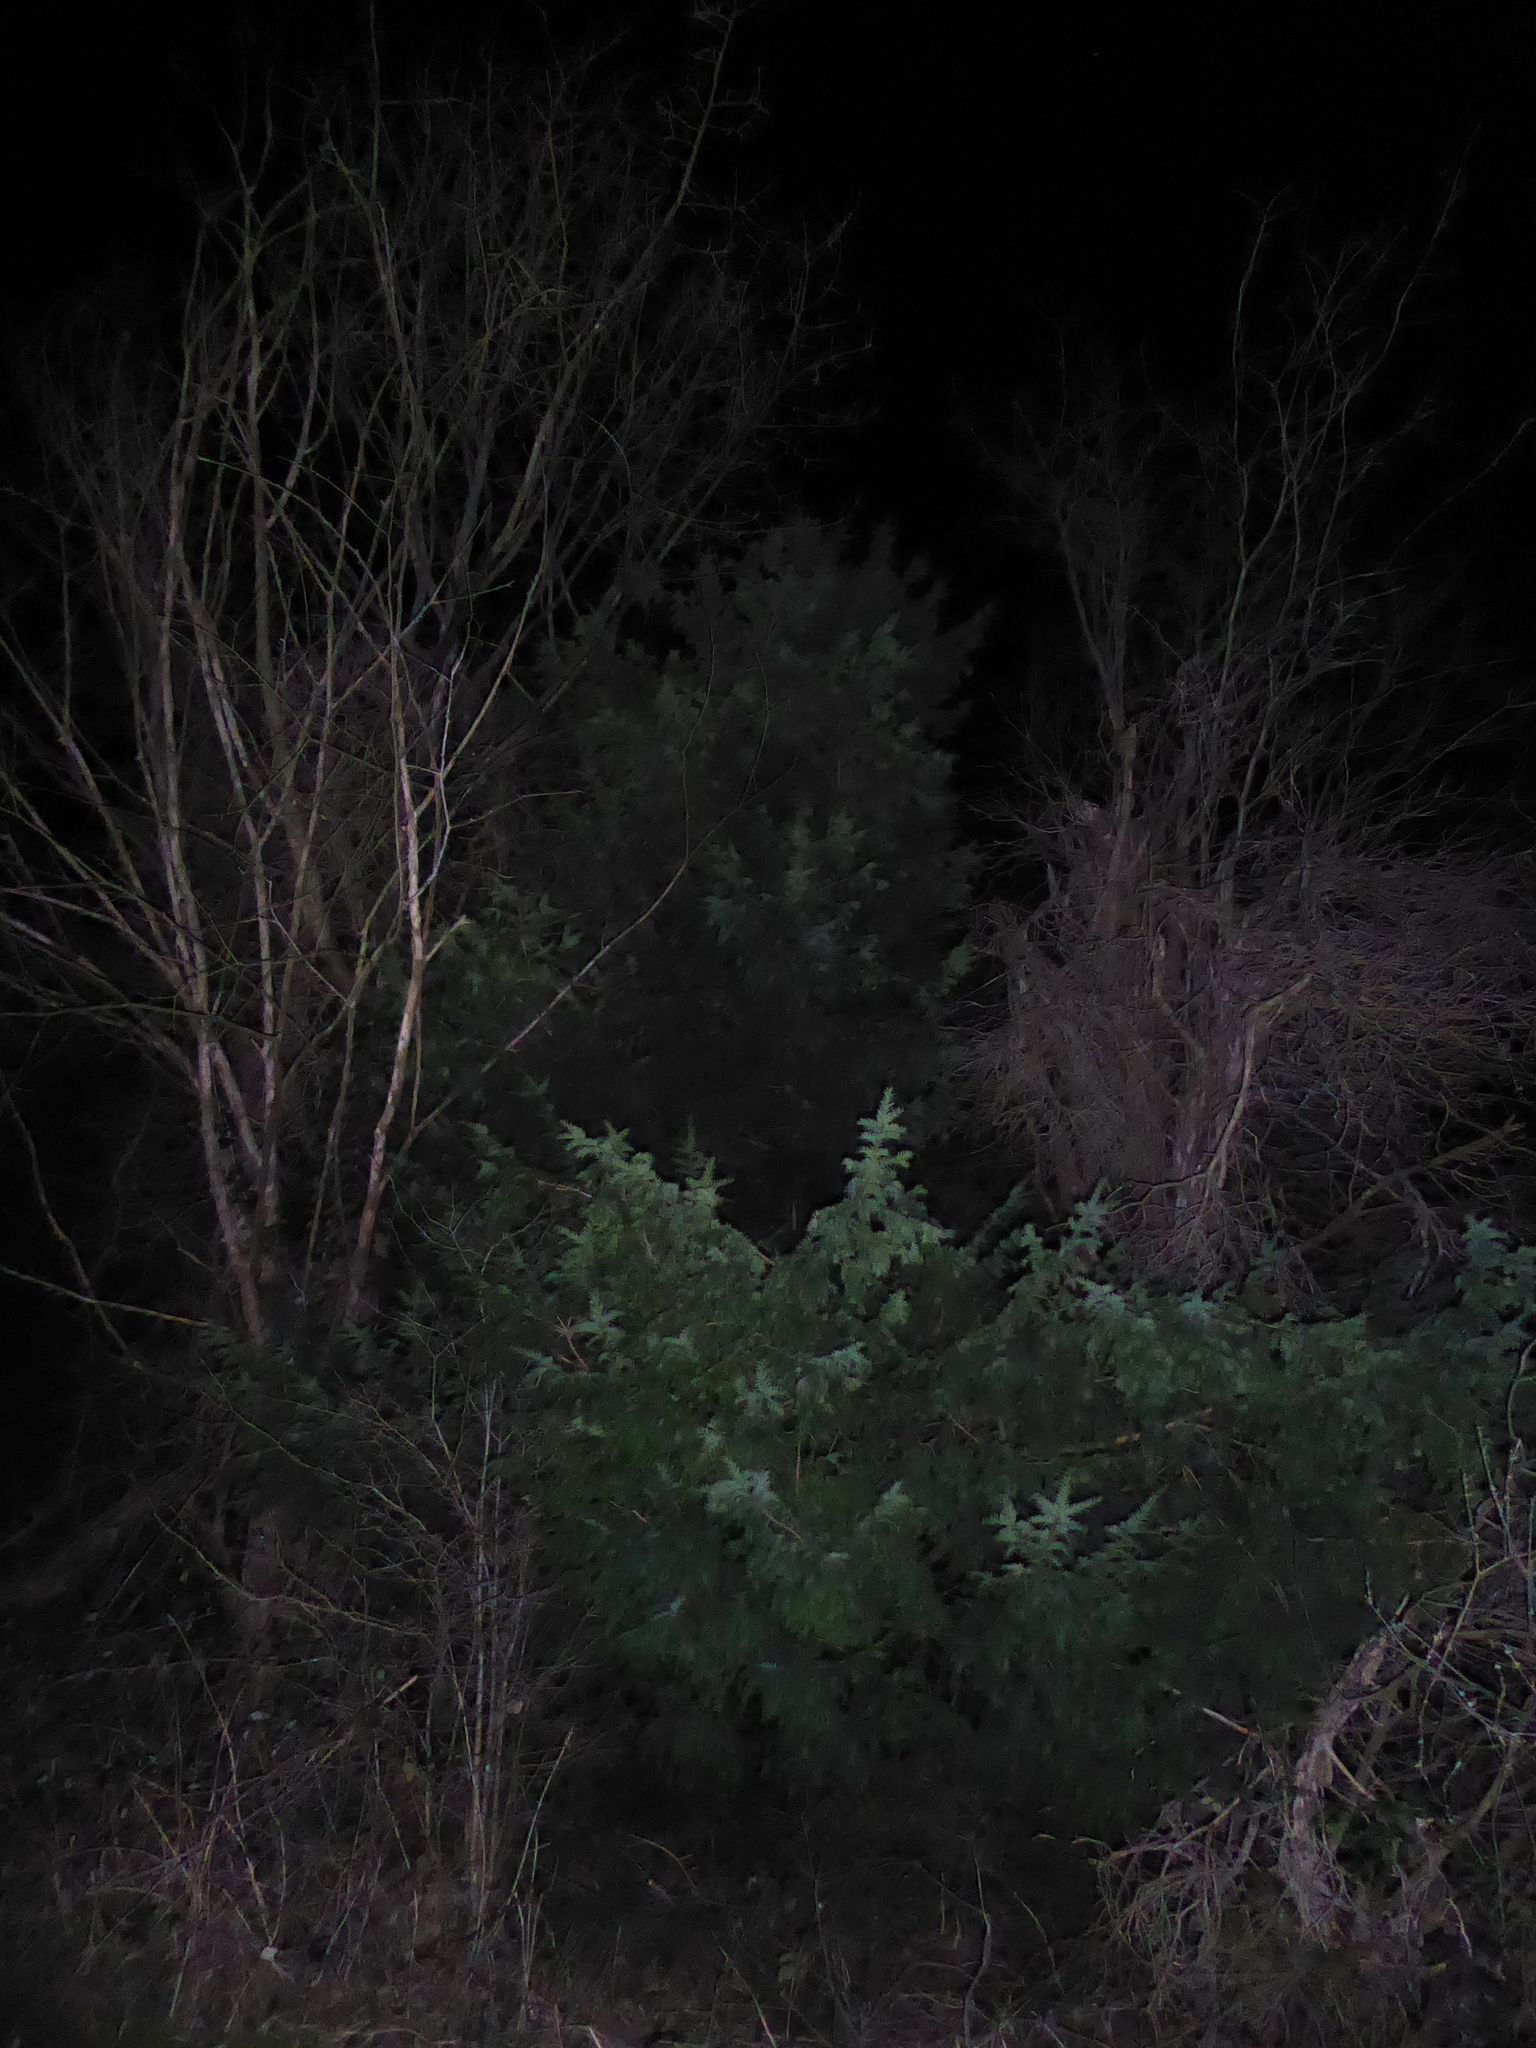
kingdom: Plantae
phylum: Tracheophyta
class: Pinopsida
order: Pinales
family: Taxaceae
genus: Taxus
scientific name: Taxus baccata
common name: Yew
